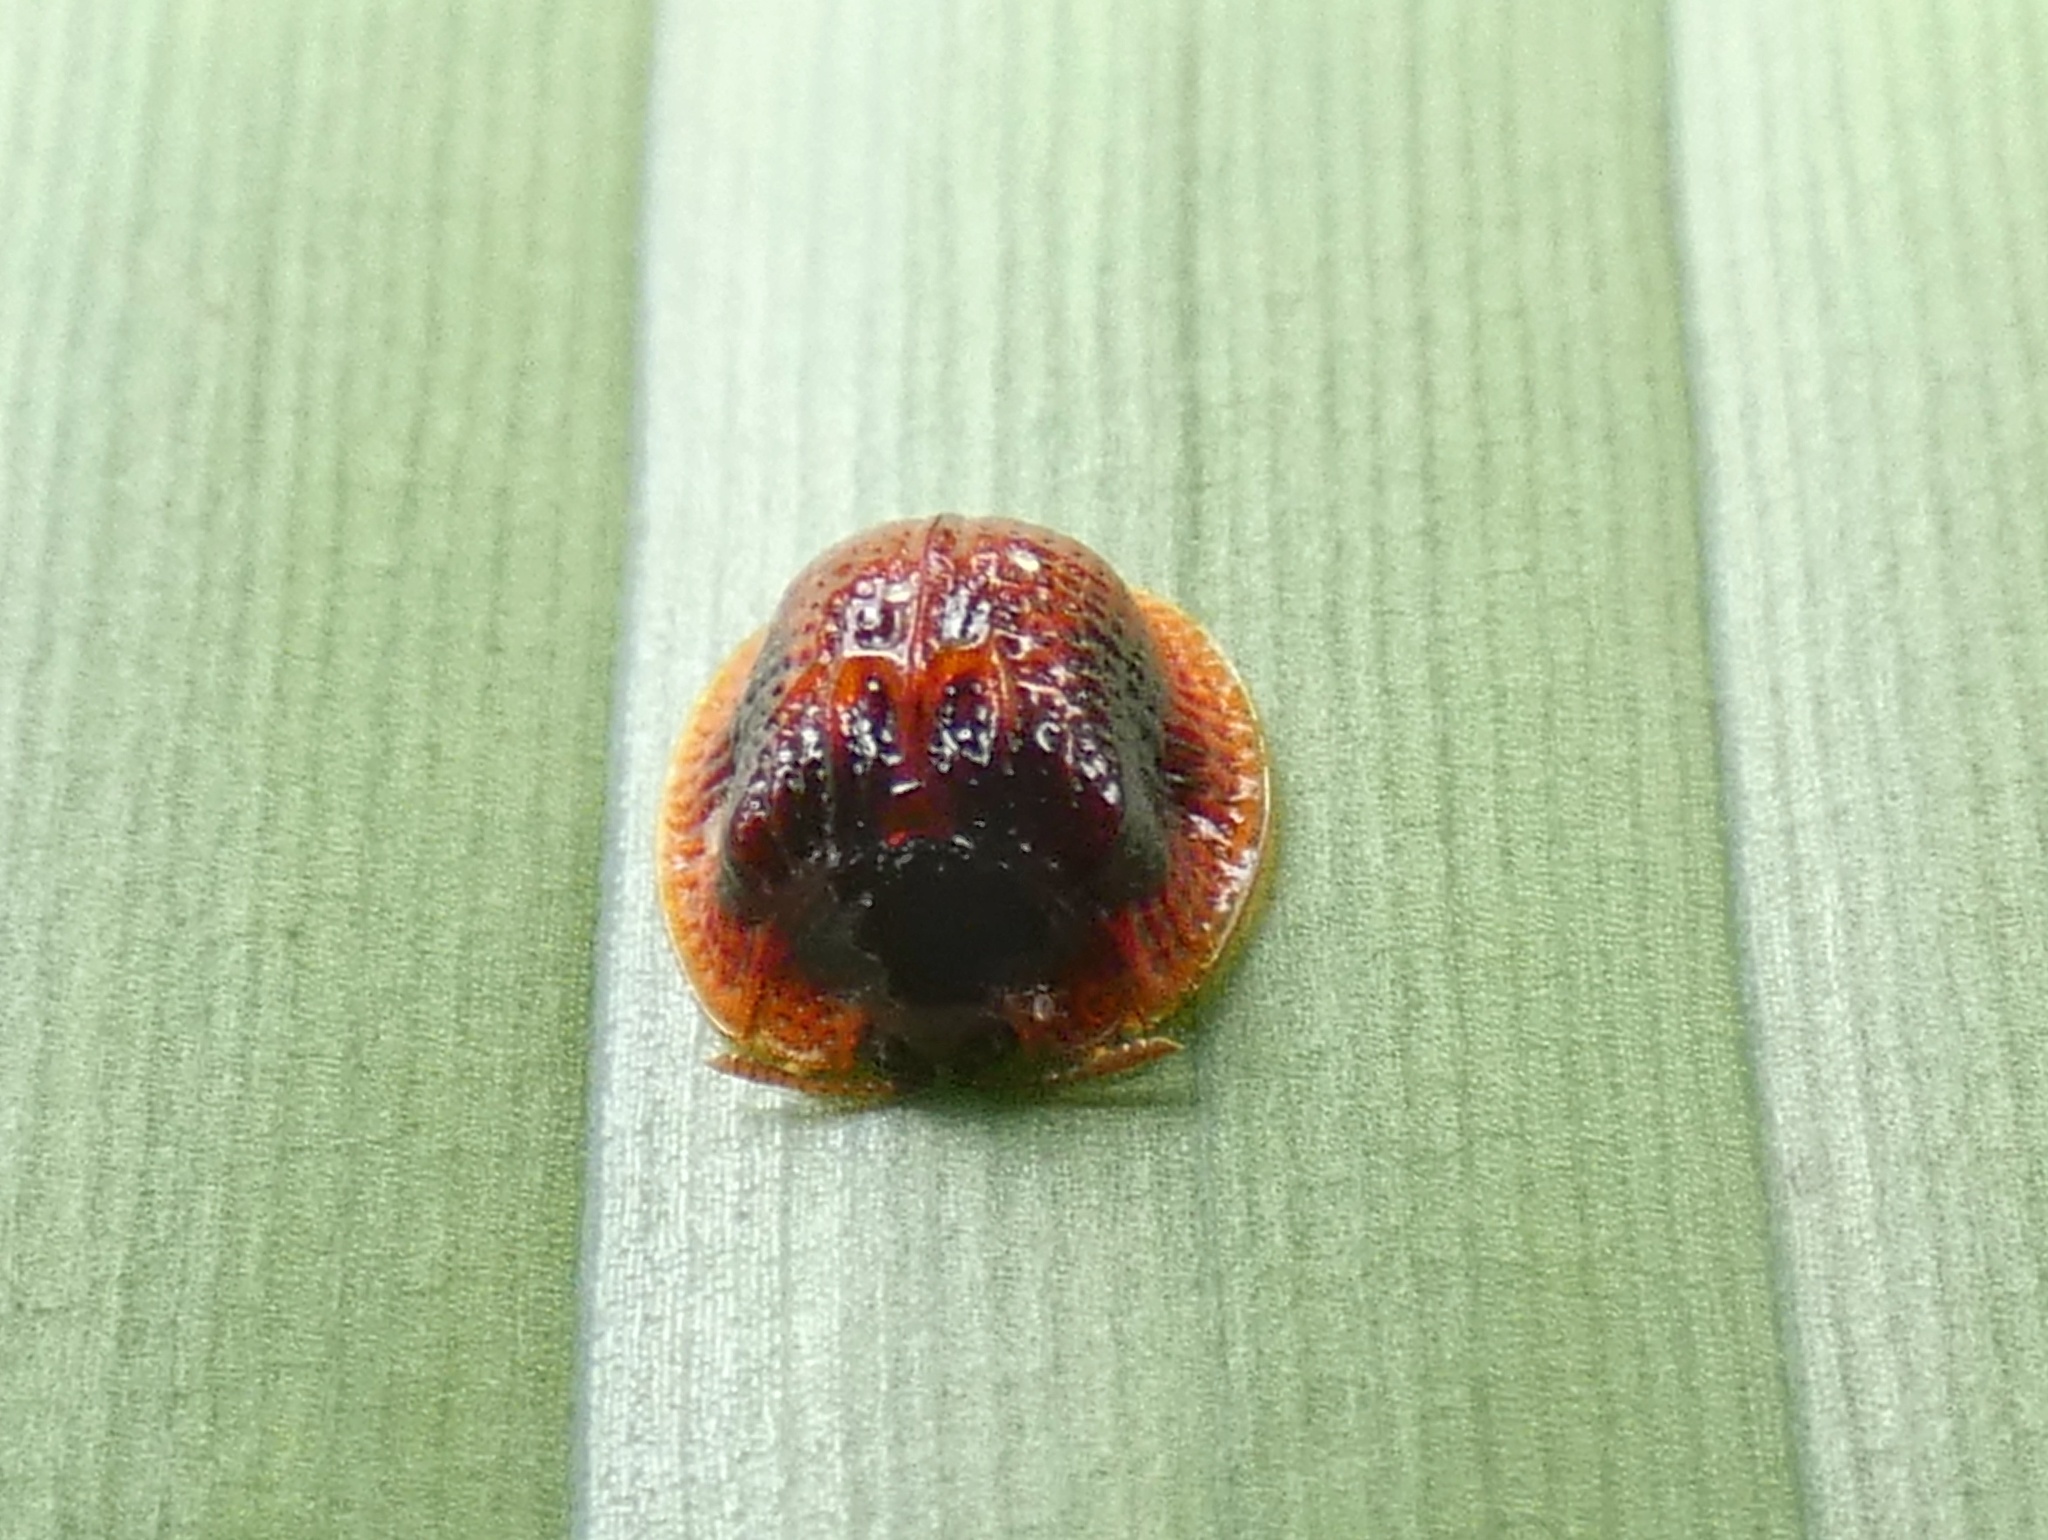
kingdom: Animalia
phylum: Arthropoda
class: Insecta
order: Coleoptera
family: Chrysomelidae
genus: Spaethiella
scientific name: Spaethiella miniata
